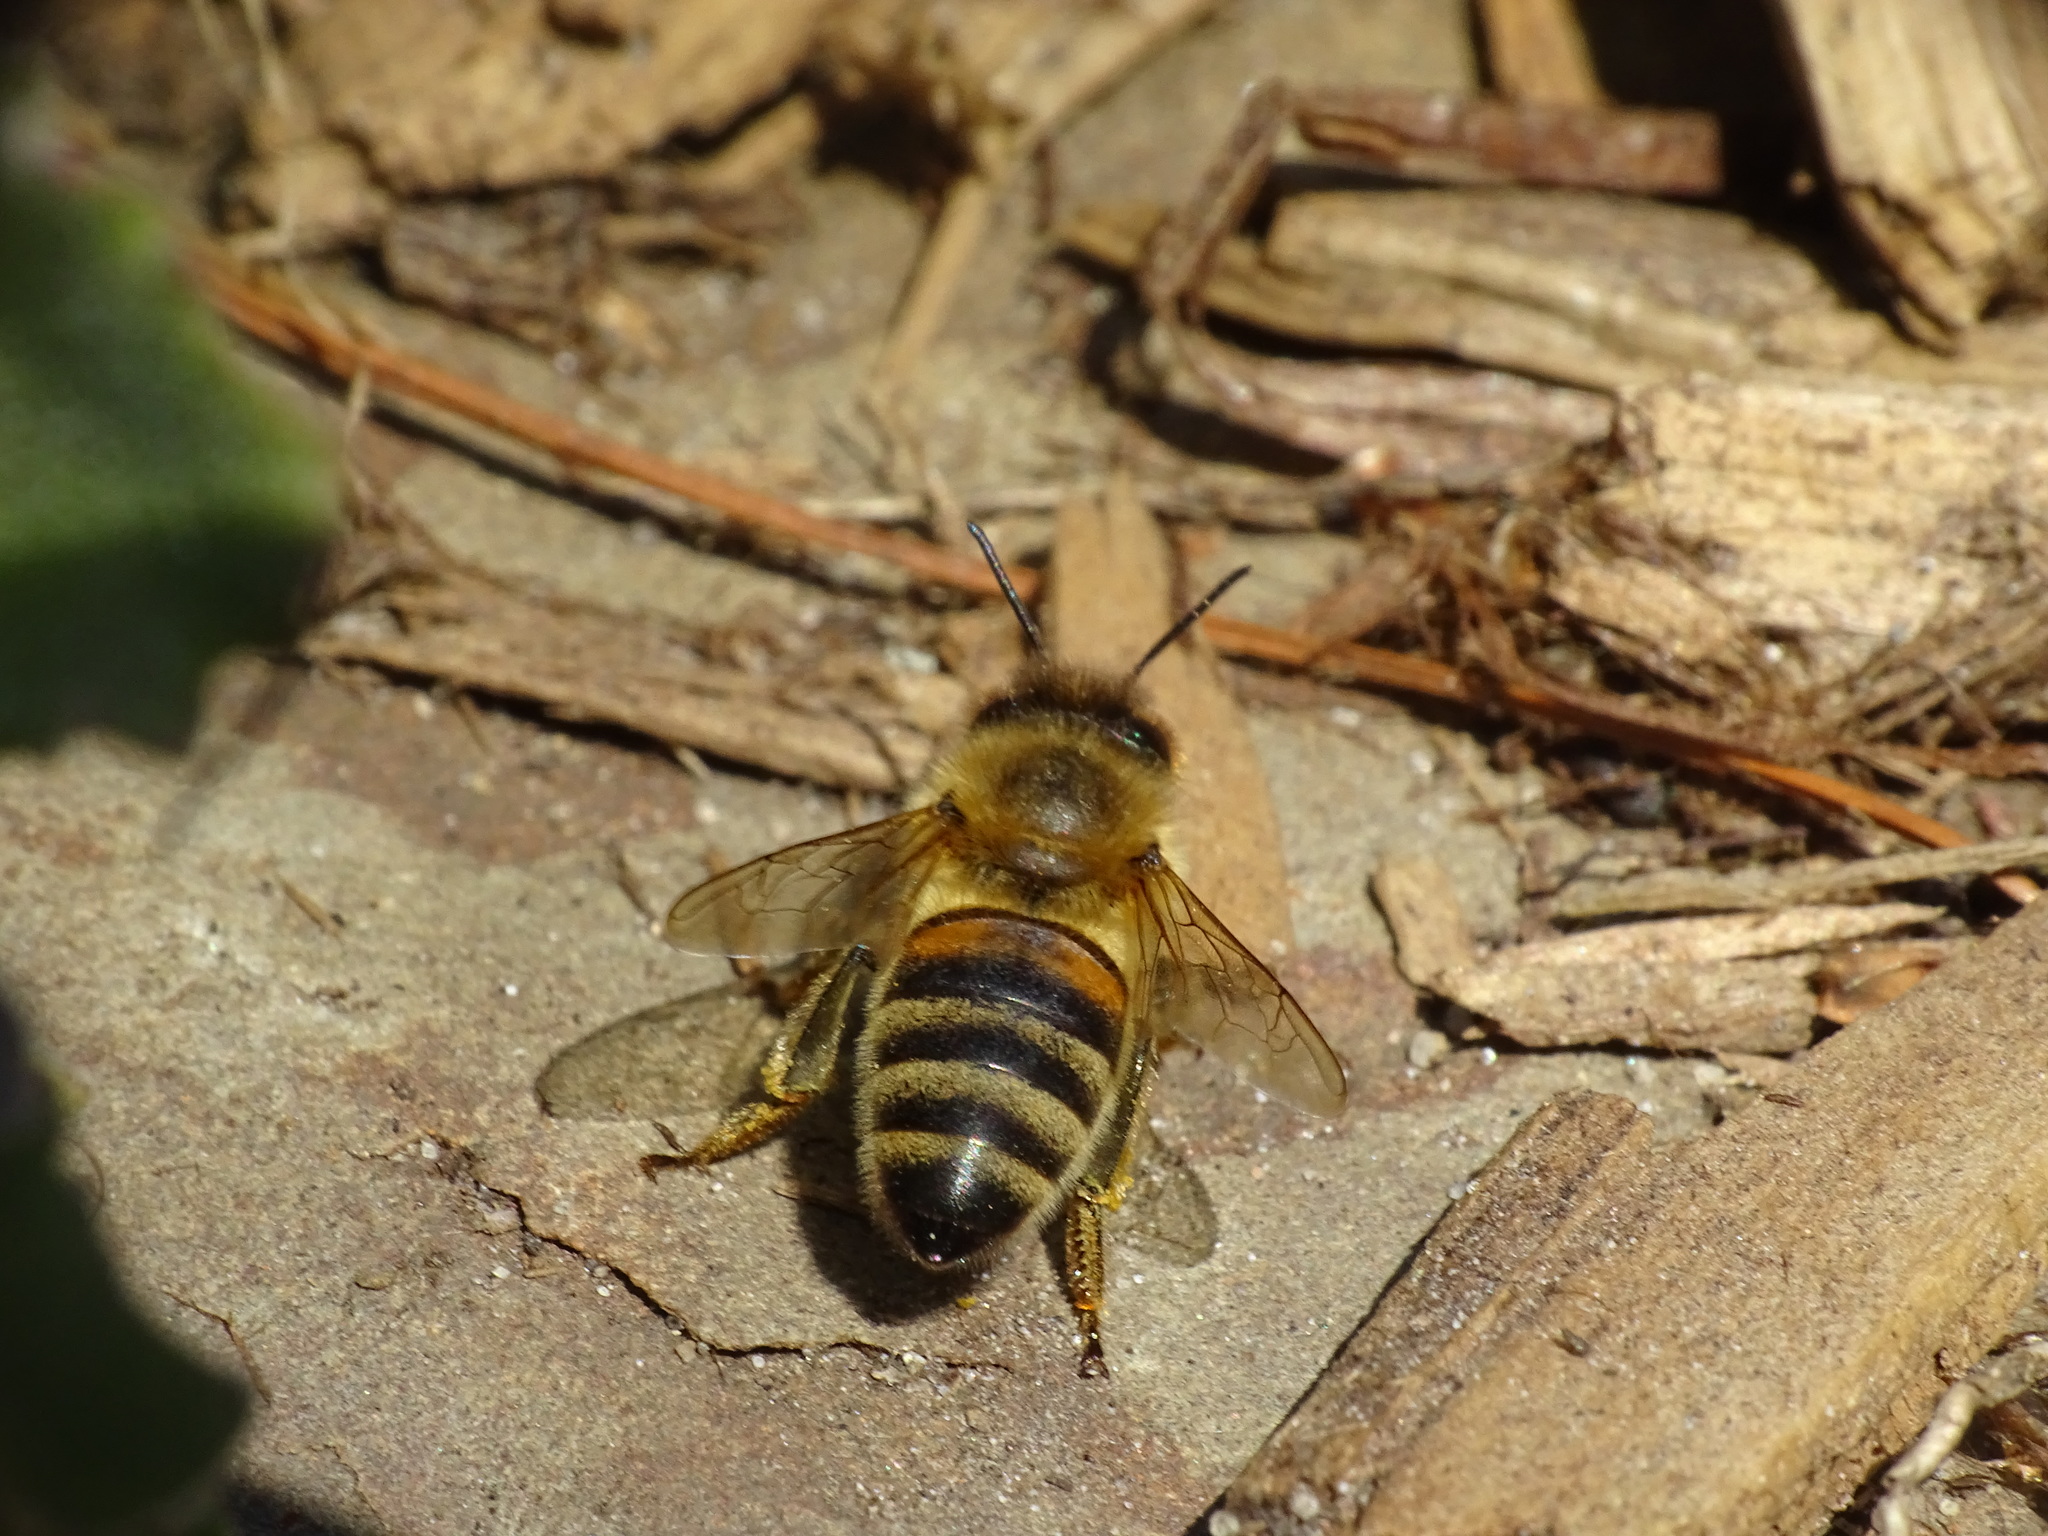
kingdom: Animalia
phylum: Arthropoda
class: Insecta
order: Hymenoptera
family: Apidae
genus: Apis
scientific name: Apis mellifera
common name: Honey bee
